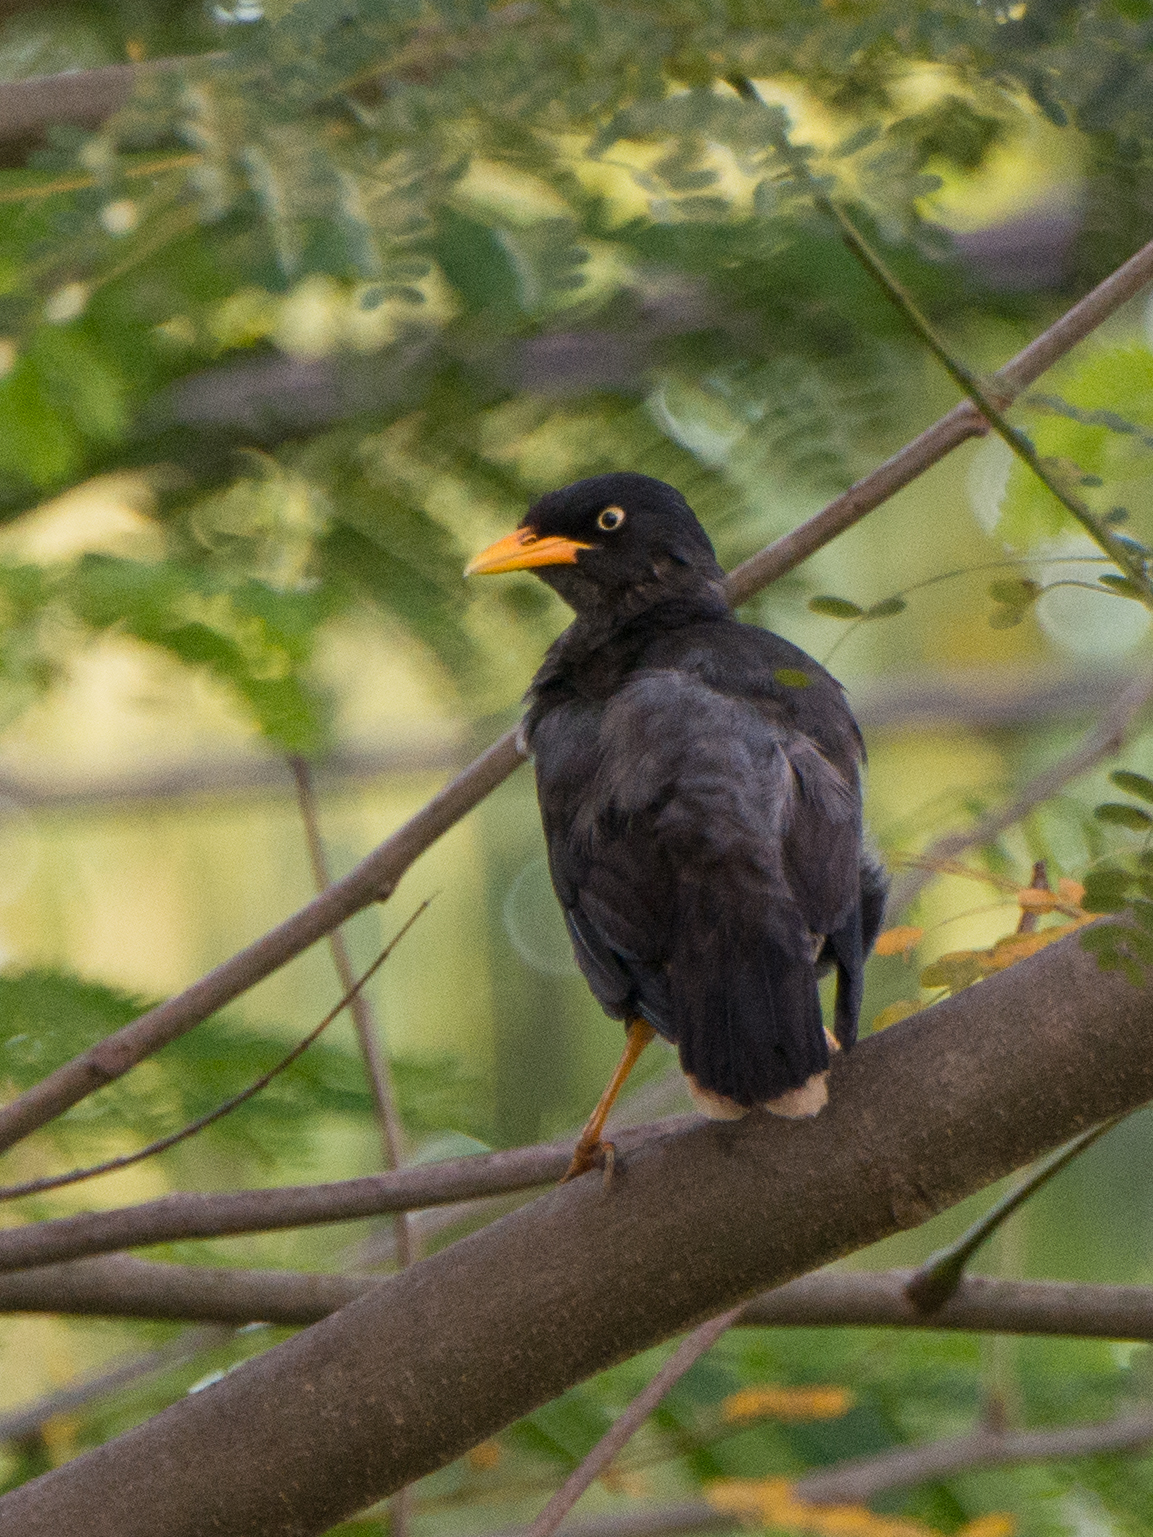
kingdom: Animalia
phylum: Chordata
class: Aves
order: Passeriformes
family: Sturnidae
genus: Acridotheres
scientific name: Acridotheres javanicus
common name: Javan myna
